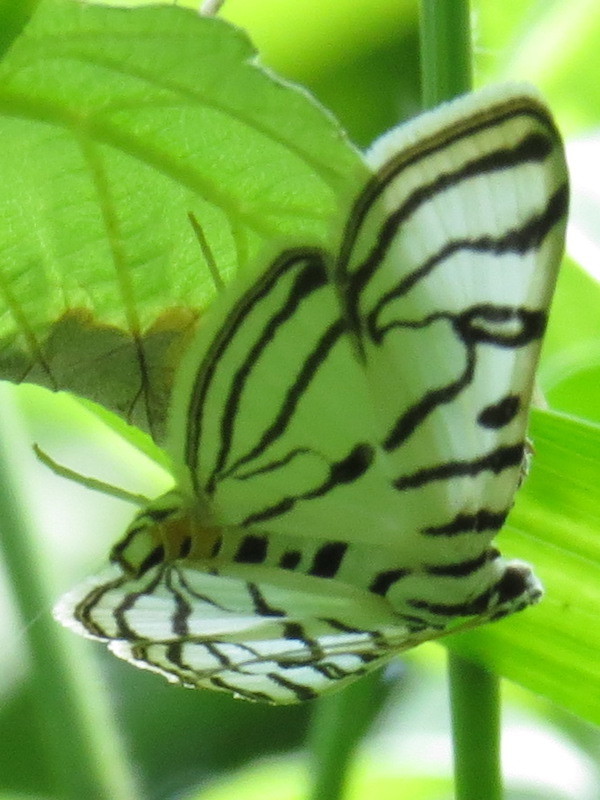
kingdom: Animalia
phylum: Arthropoda
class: Insecta
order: Lepidoptera
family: Crambidae
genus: Conchylodes
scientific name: Conchylodes ovulalis
